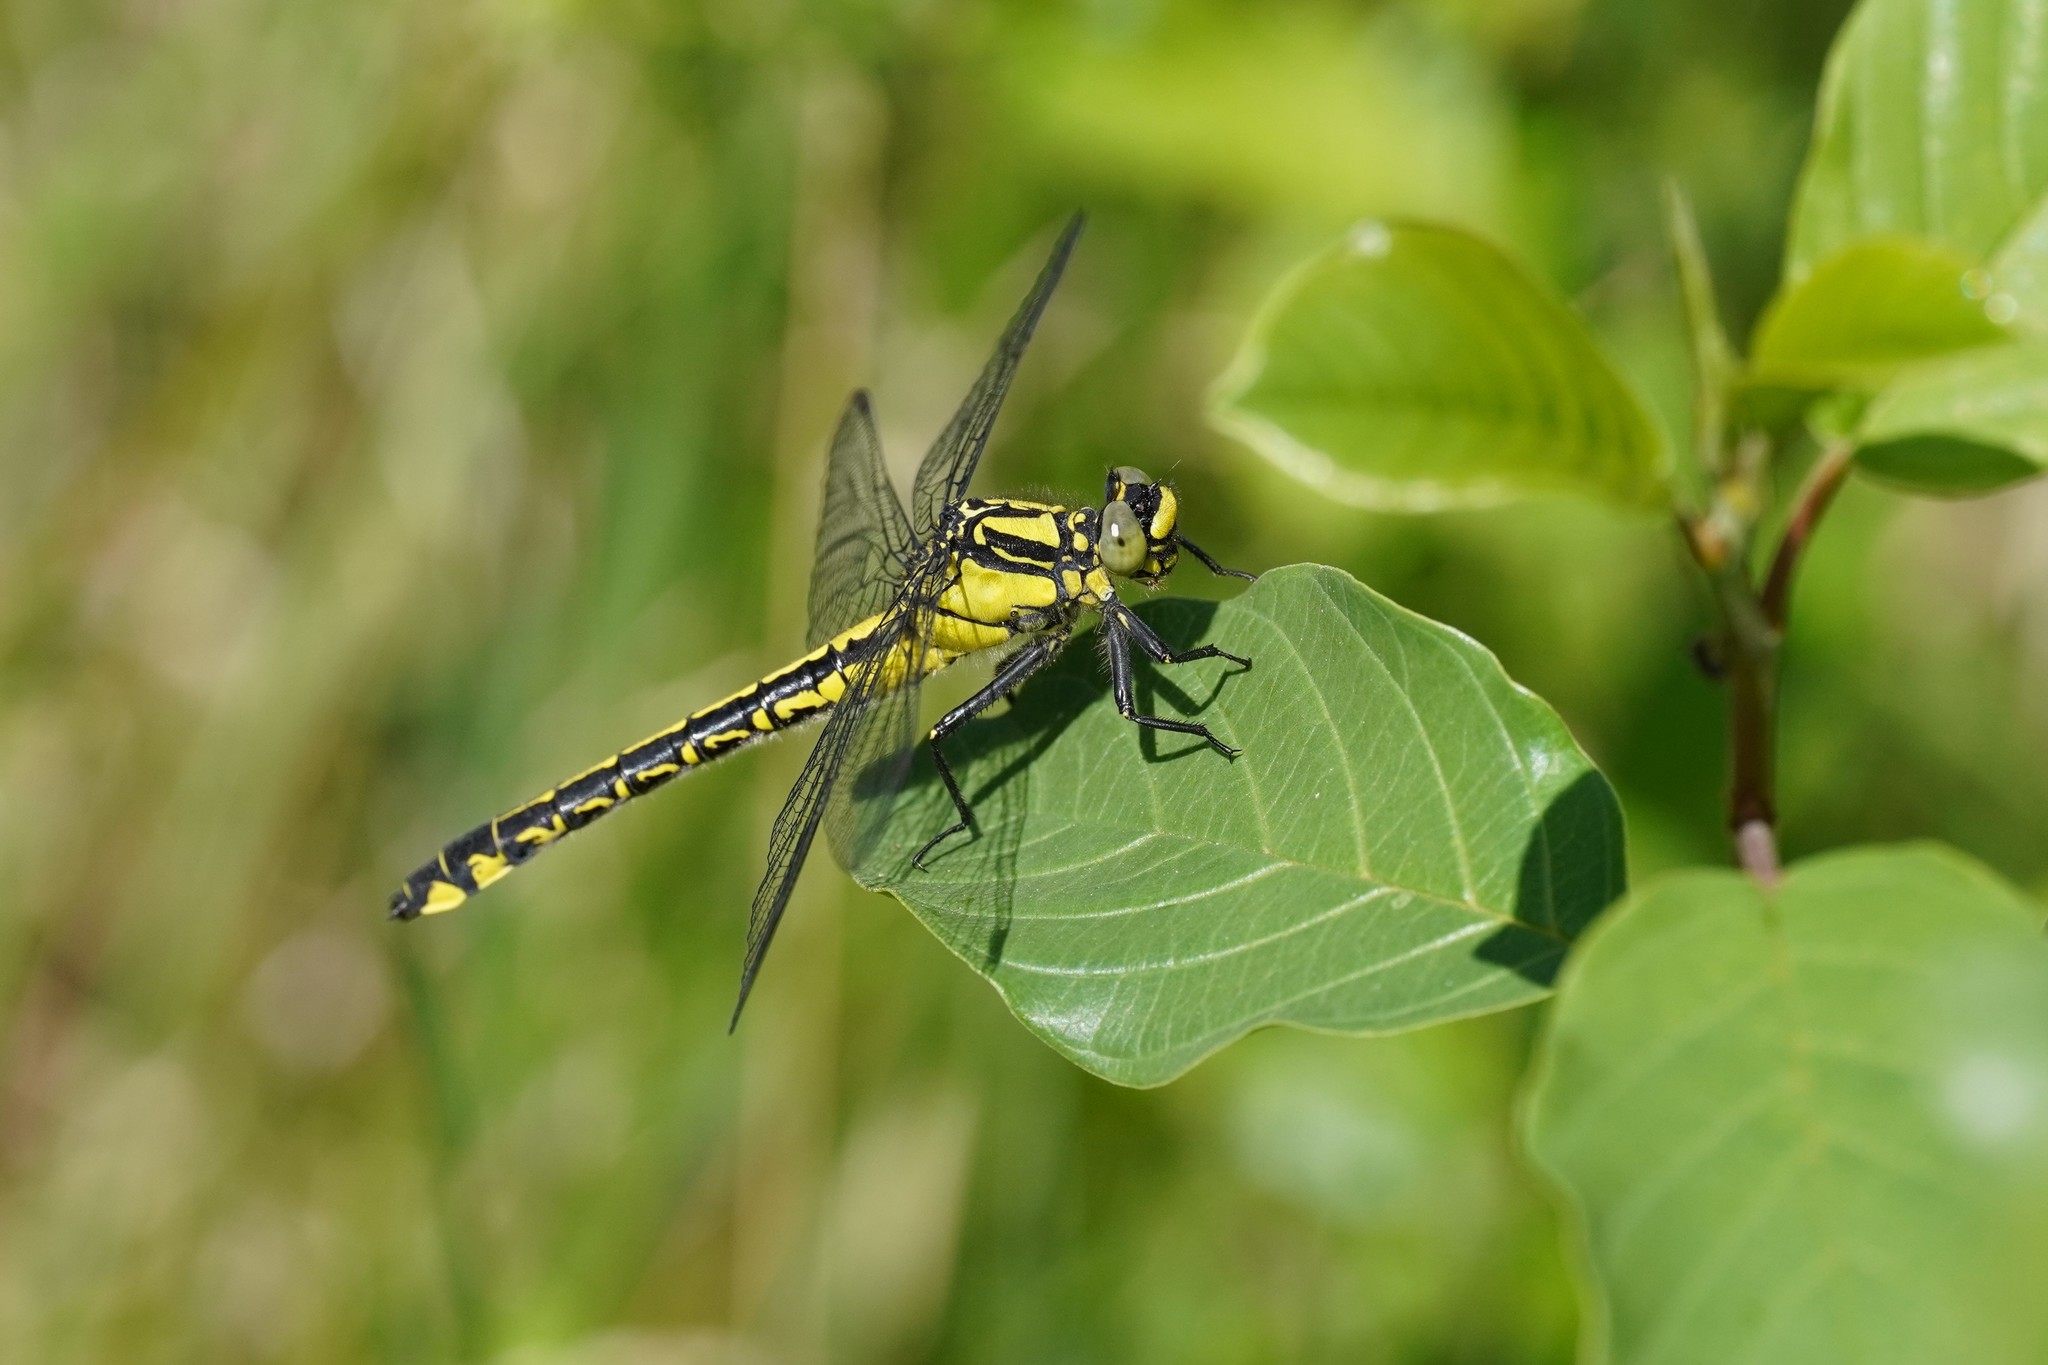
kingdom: Animalia
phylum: Arthropoda
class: Insecta
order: Odonata
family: Gomphidae
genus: Gomphus
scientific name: Gomphus vulgatissimus
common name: Club-tailed dragonfly
